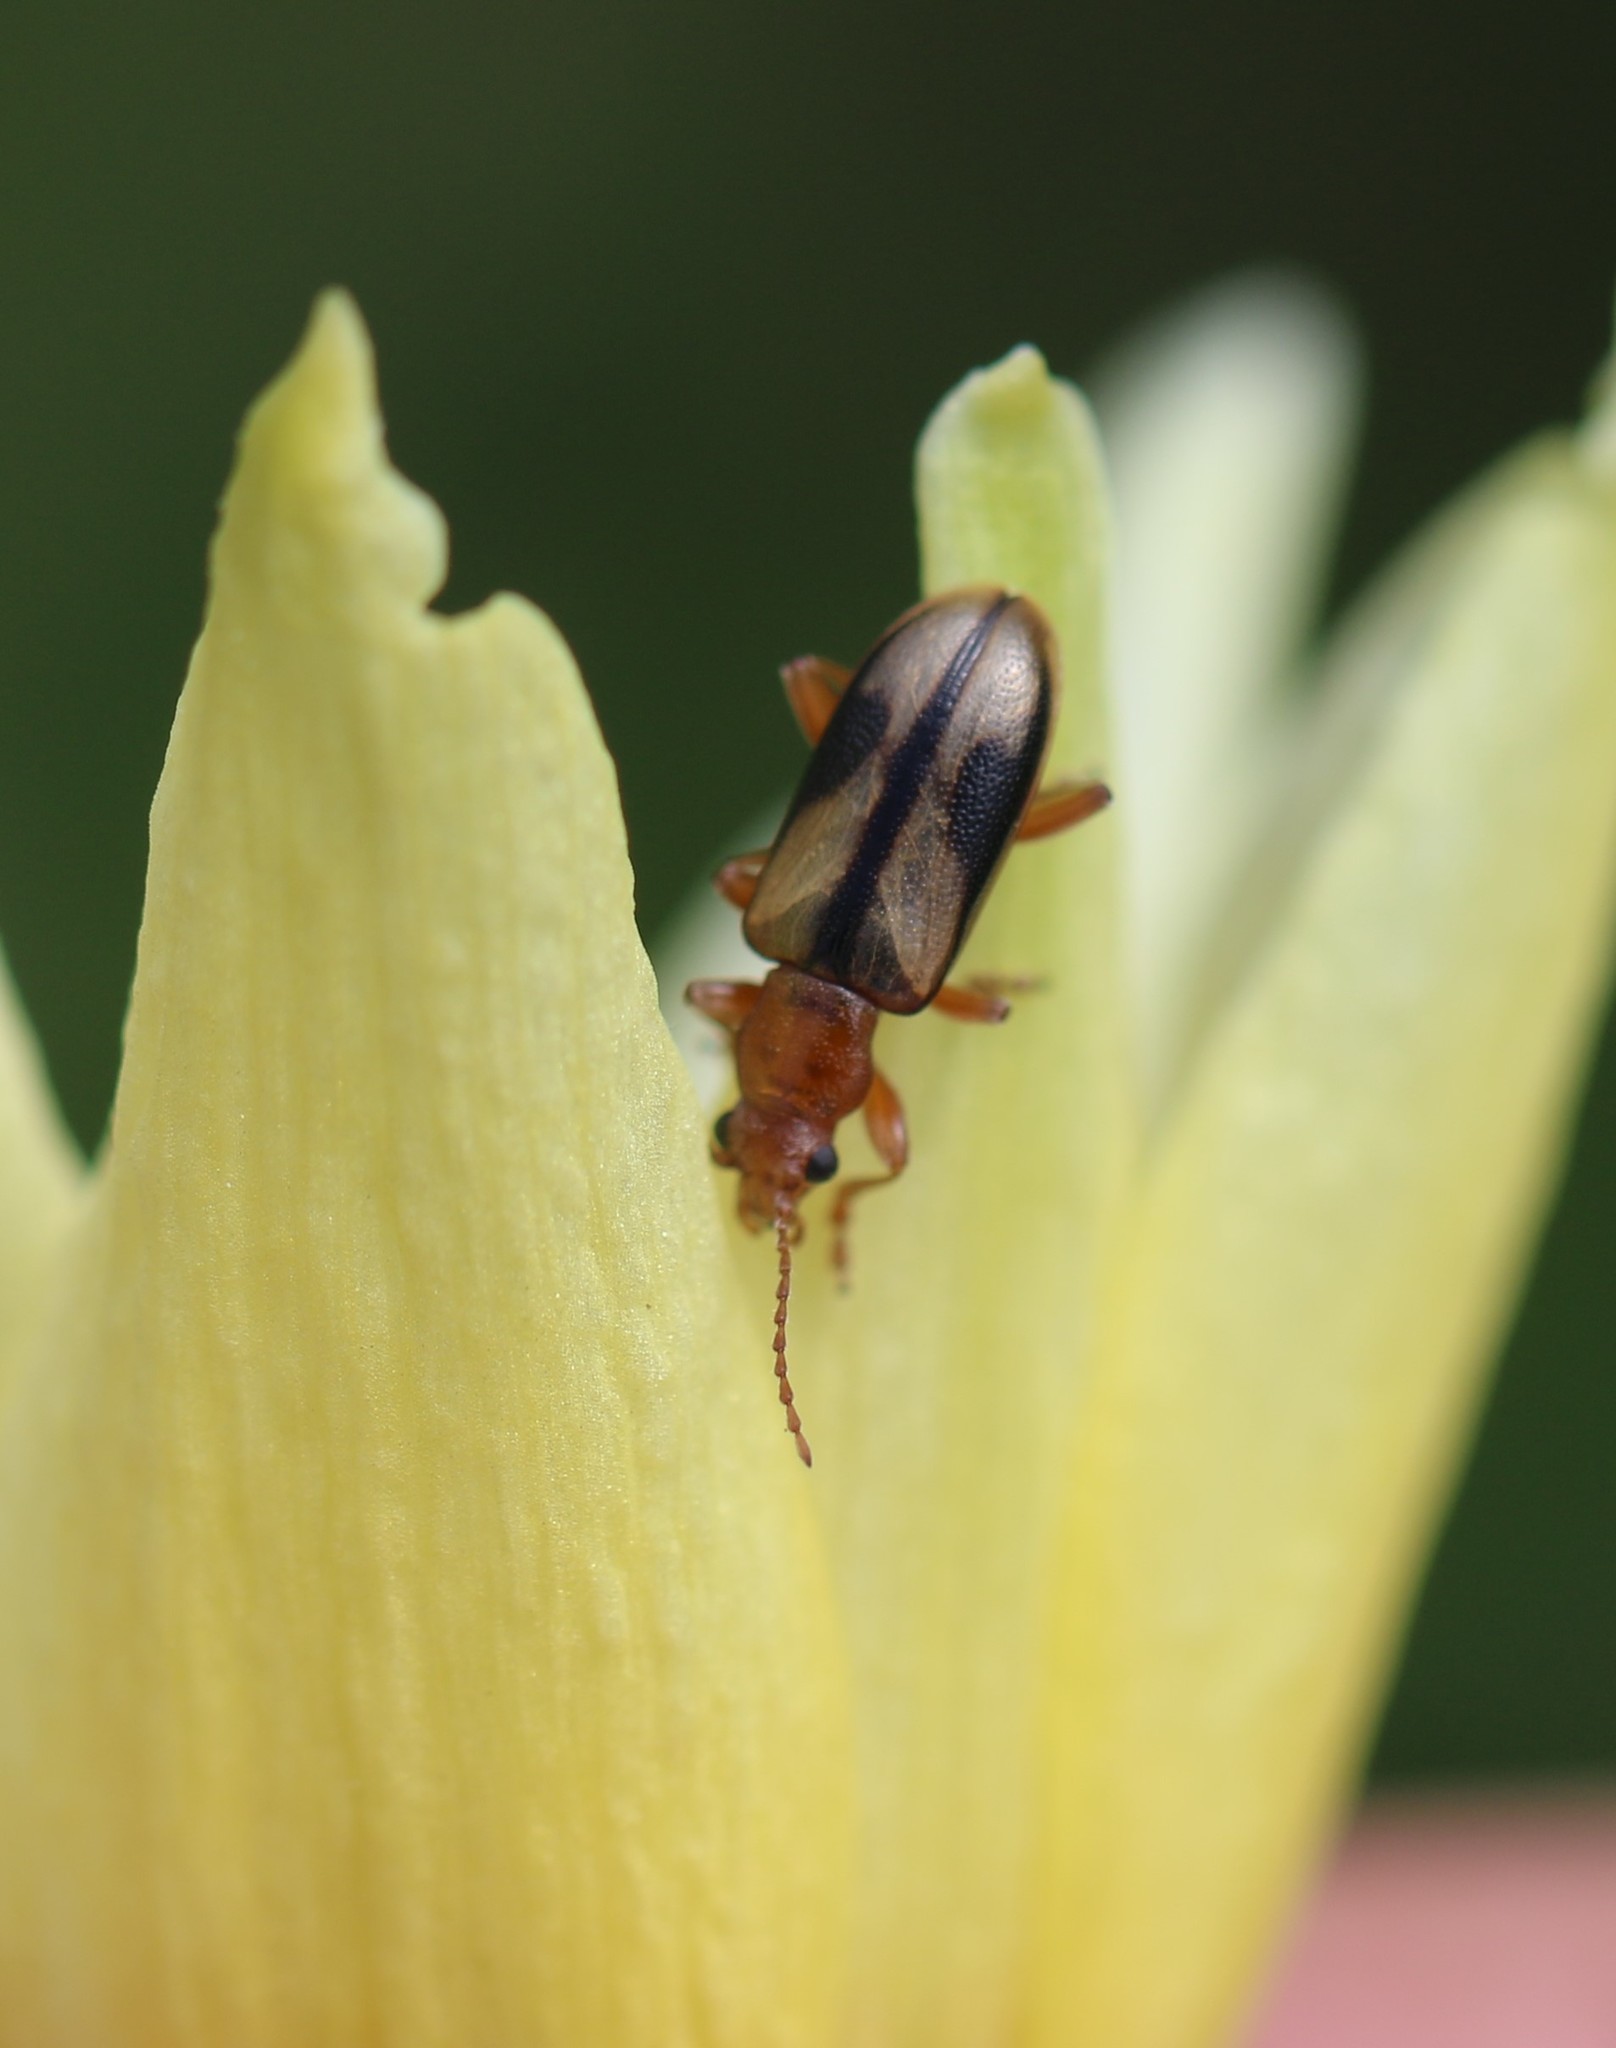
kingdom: Animalia
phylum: Arthropoda
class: Insecta
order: Coleoptera
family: Orsodacnidae
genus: Orsodacne
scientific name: Orsodacne atra
